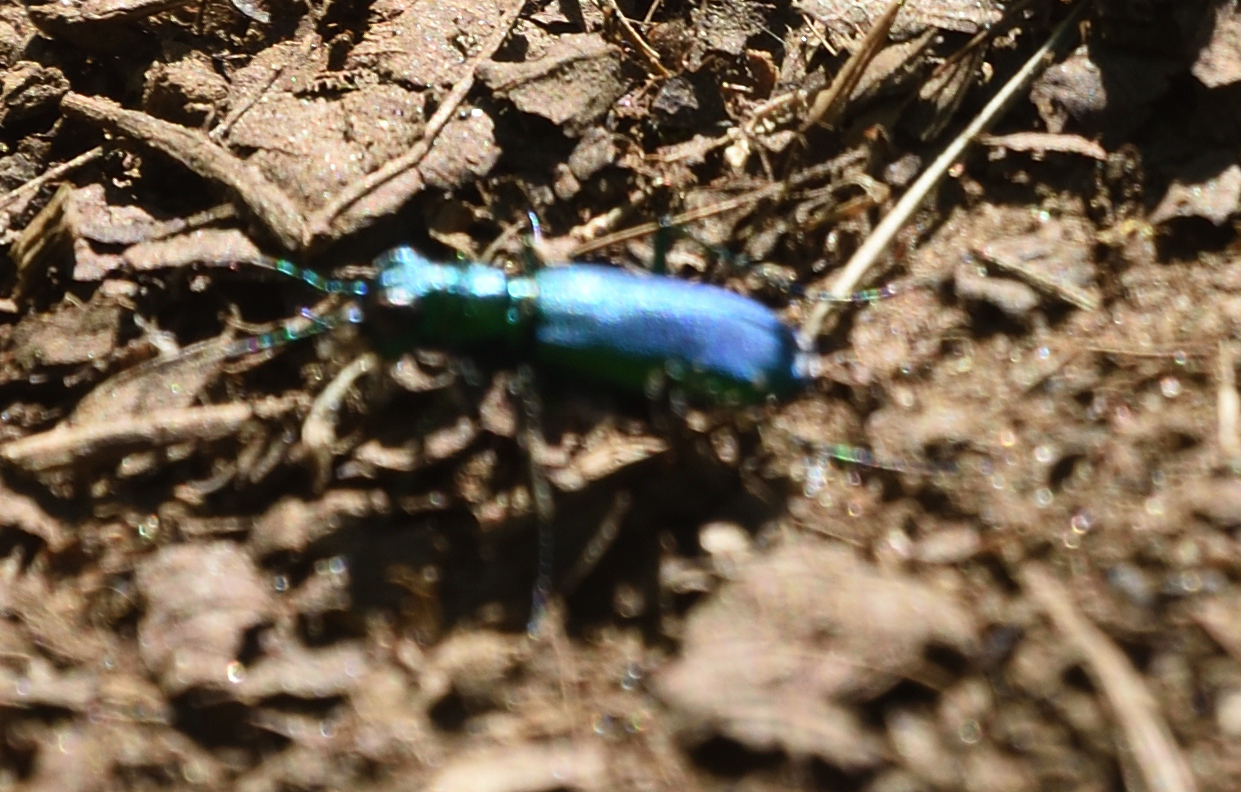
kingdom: Animalia
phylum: Arthropoda
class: Insecta
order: Coleoptera
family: Carabidae
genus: Cicindela
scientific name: Cicindela sexguttata
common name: Six-spotted tiger beetle
